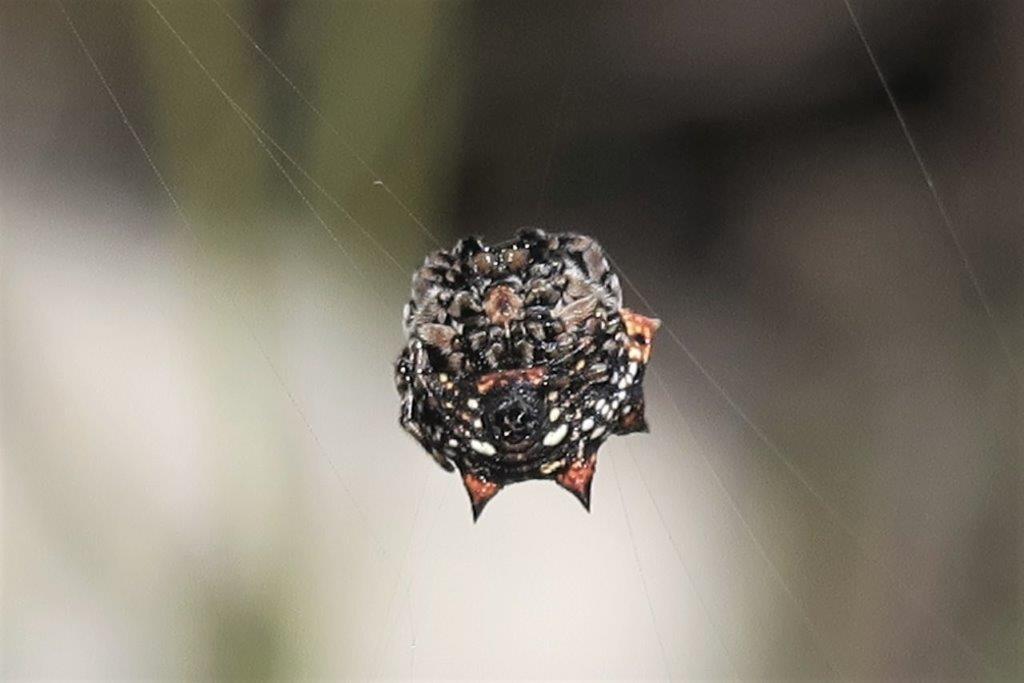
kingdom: Animalia
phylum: Arthropoda
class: Arachnida
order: Araneae
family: Araneidae
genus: Isoxya
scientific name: Isoxya mossamedensis
